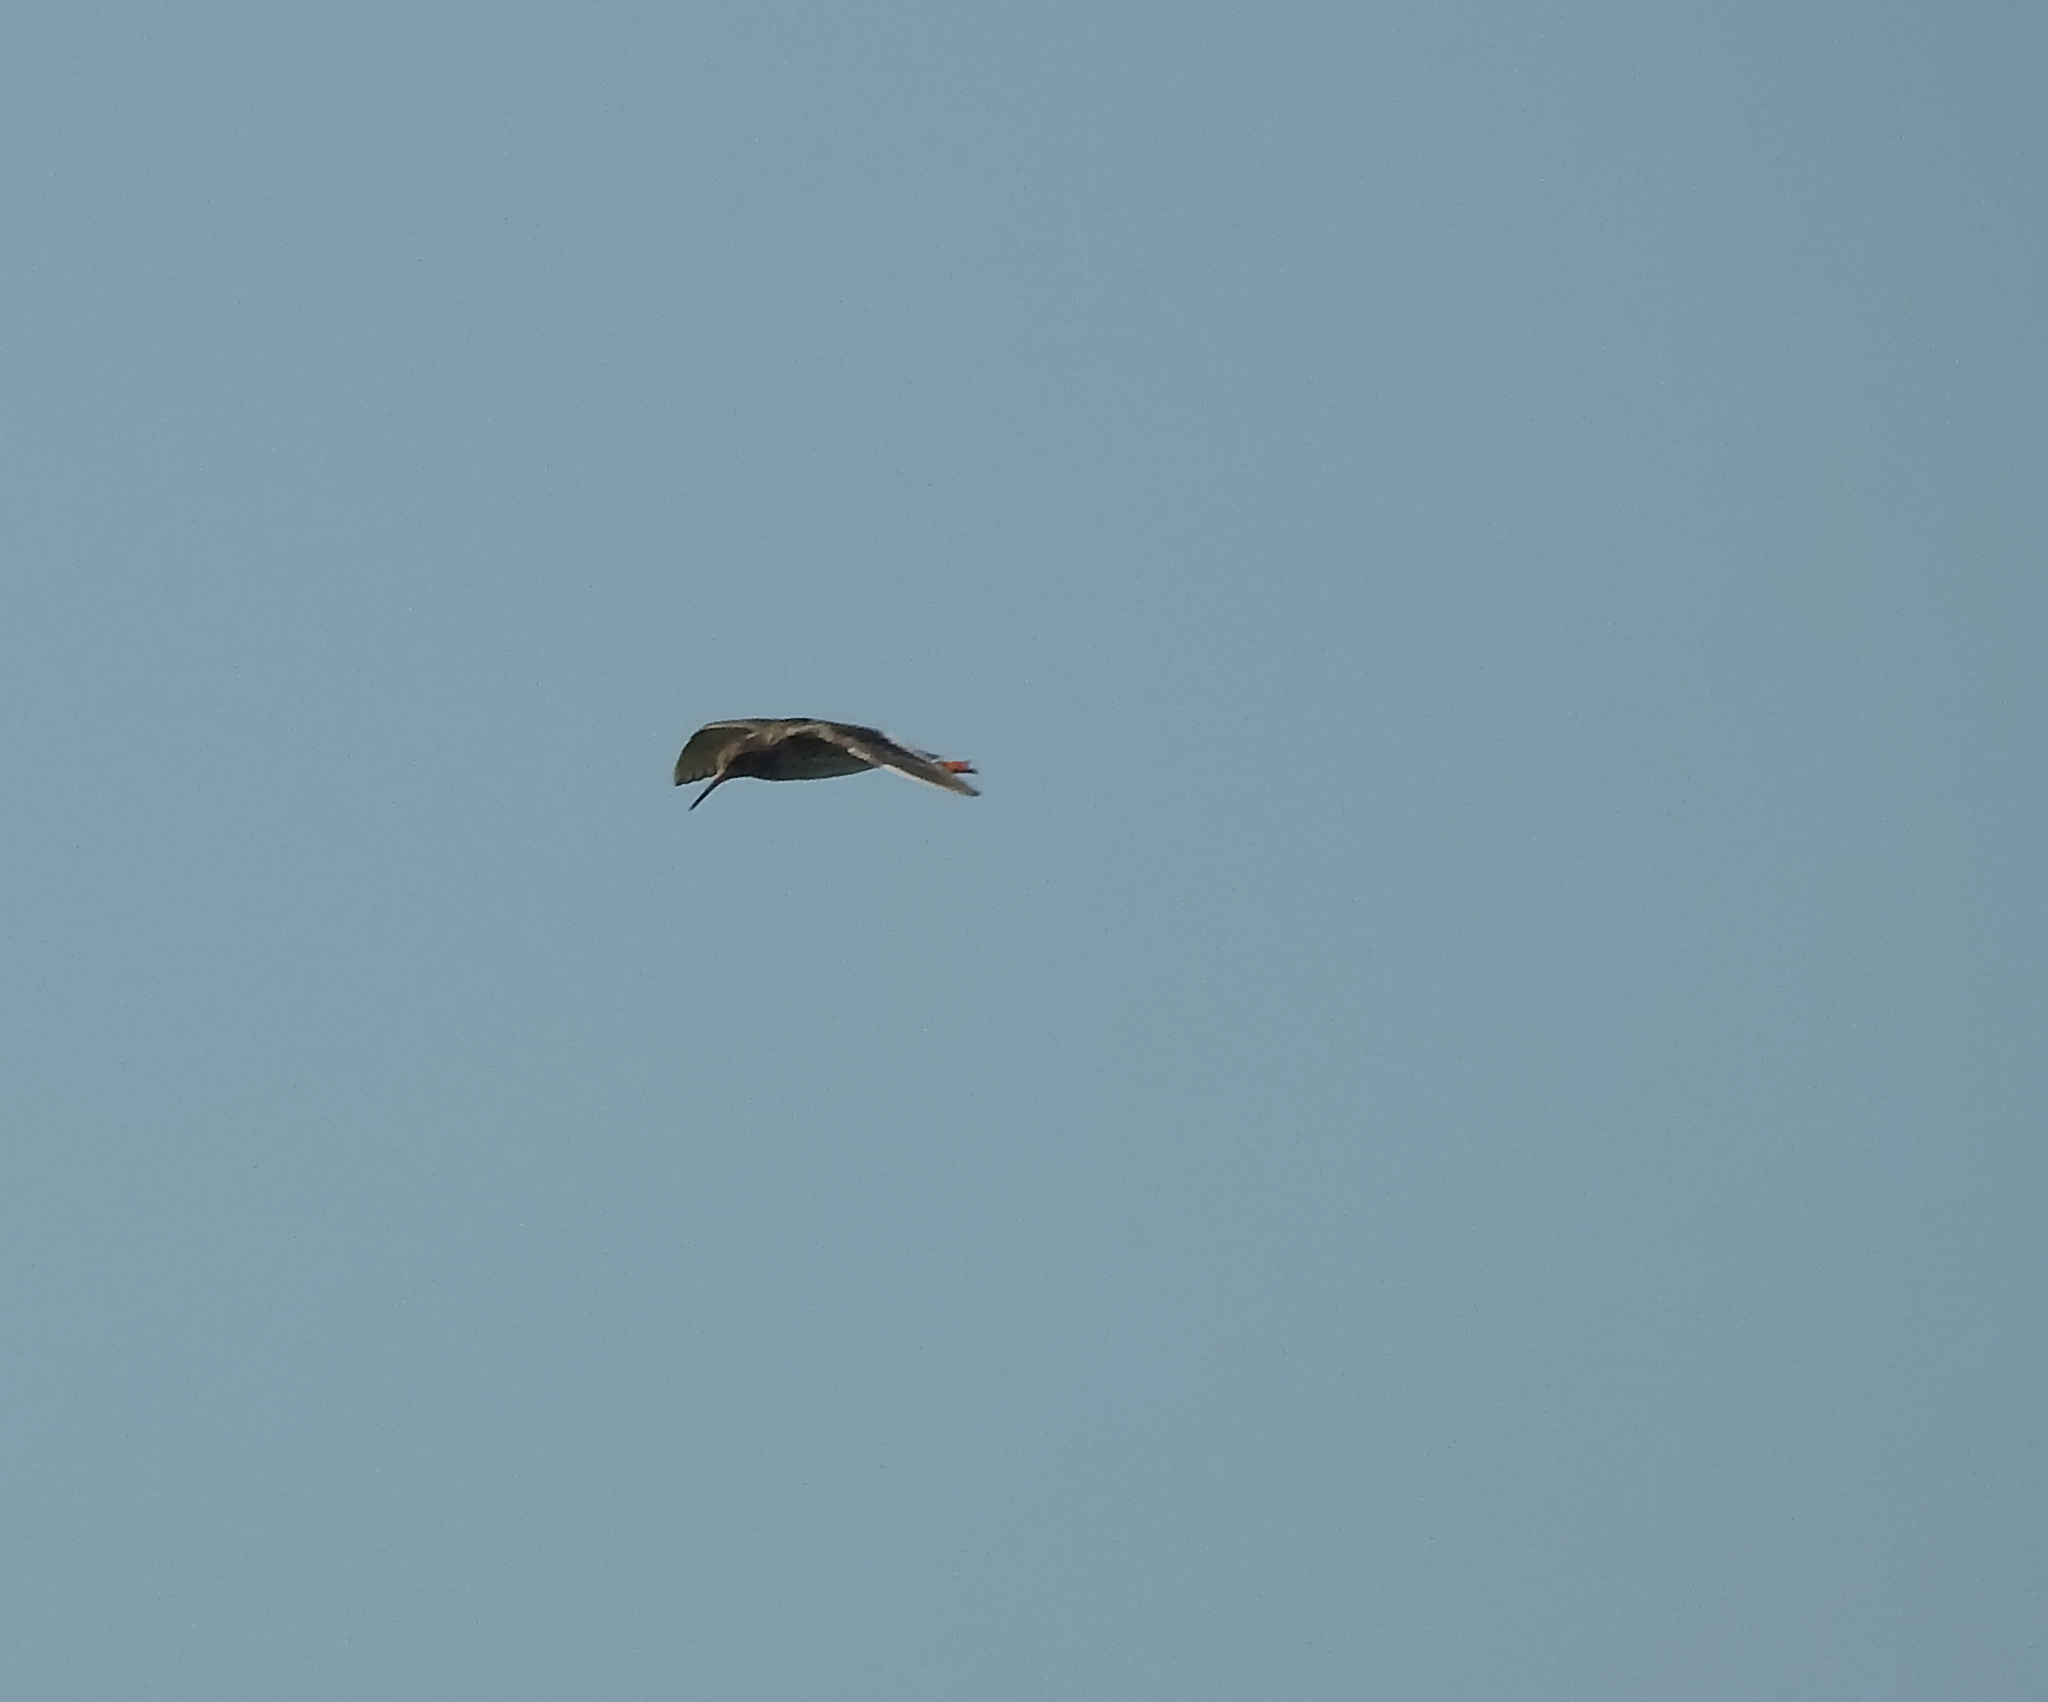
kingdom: Animalia
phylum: Chordata
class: Aves
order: Charadriiformes
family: Scolopacidae
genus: Tringa
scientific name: Tringa totanus
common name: Common redshank
